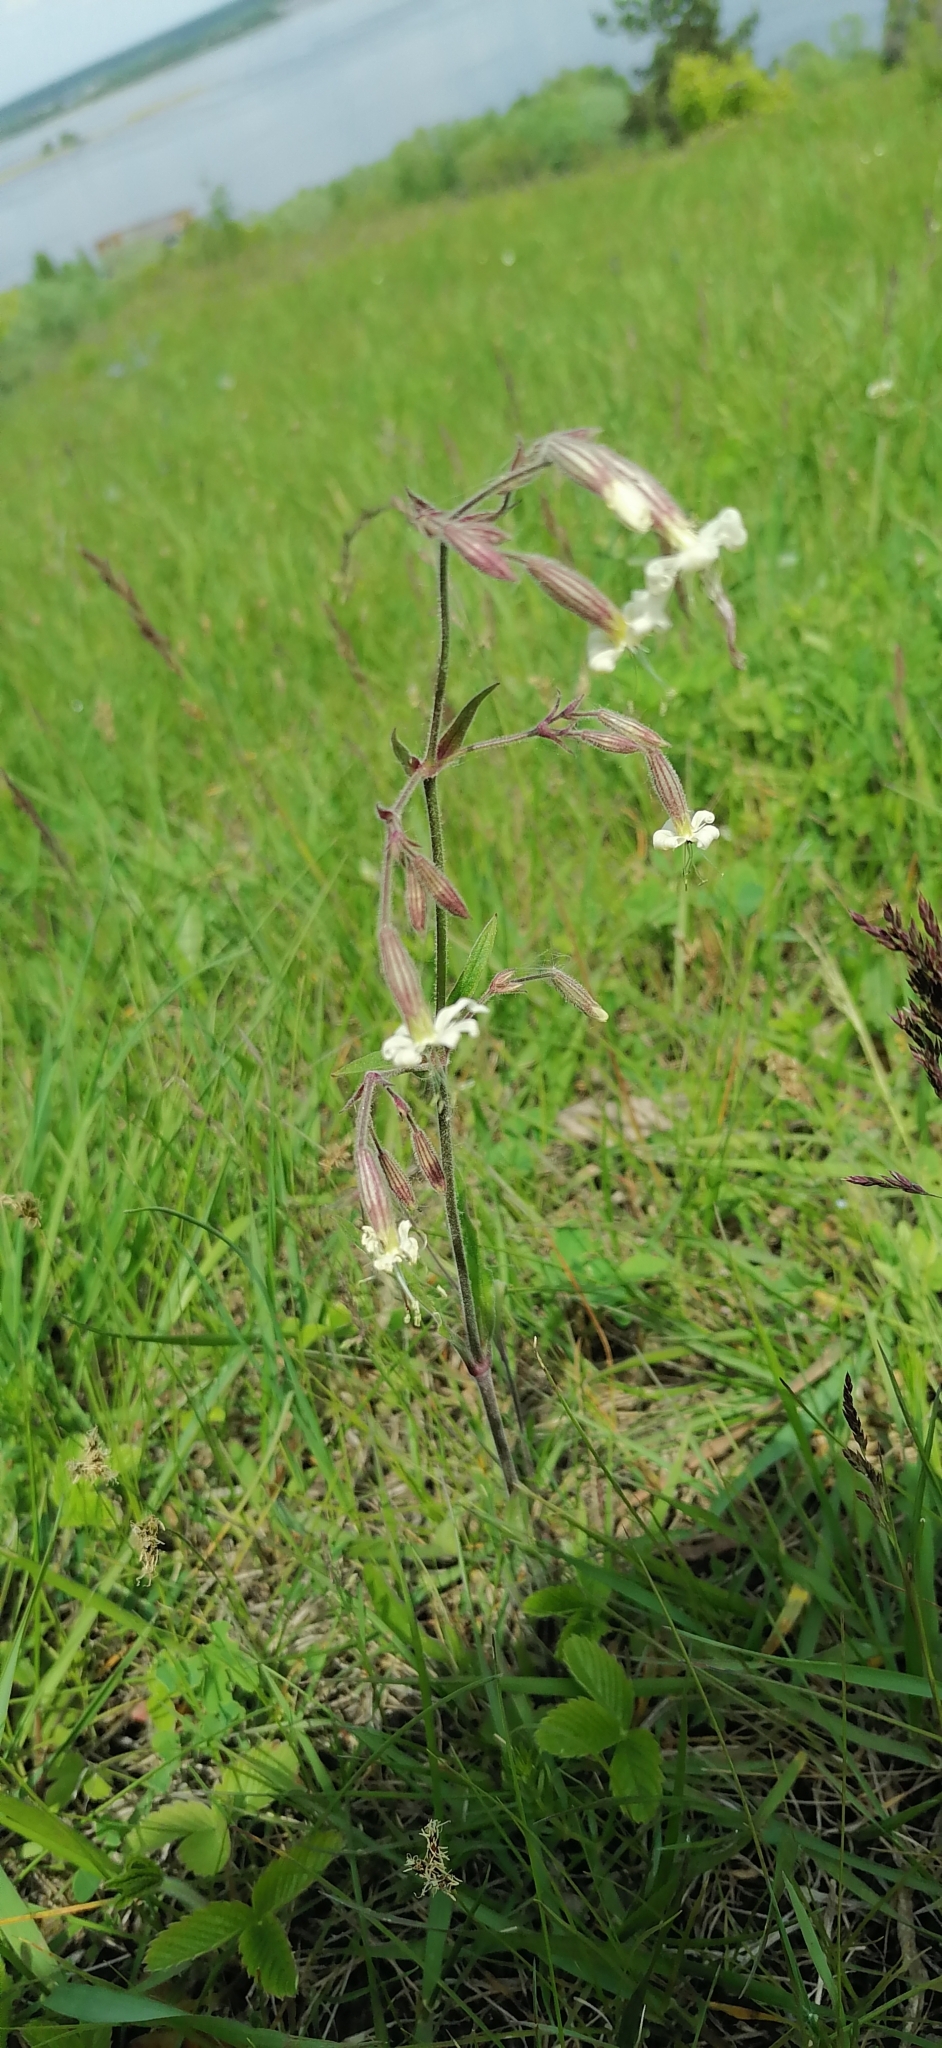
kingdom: Plantae
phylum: Tracheophyta
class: Magnoliopsida
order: Caryophyllales
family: Caryophyllaceae
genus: Silene
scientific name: Silene nutans
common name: Nottingham catchfly
